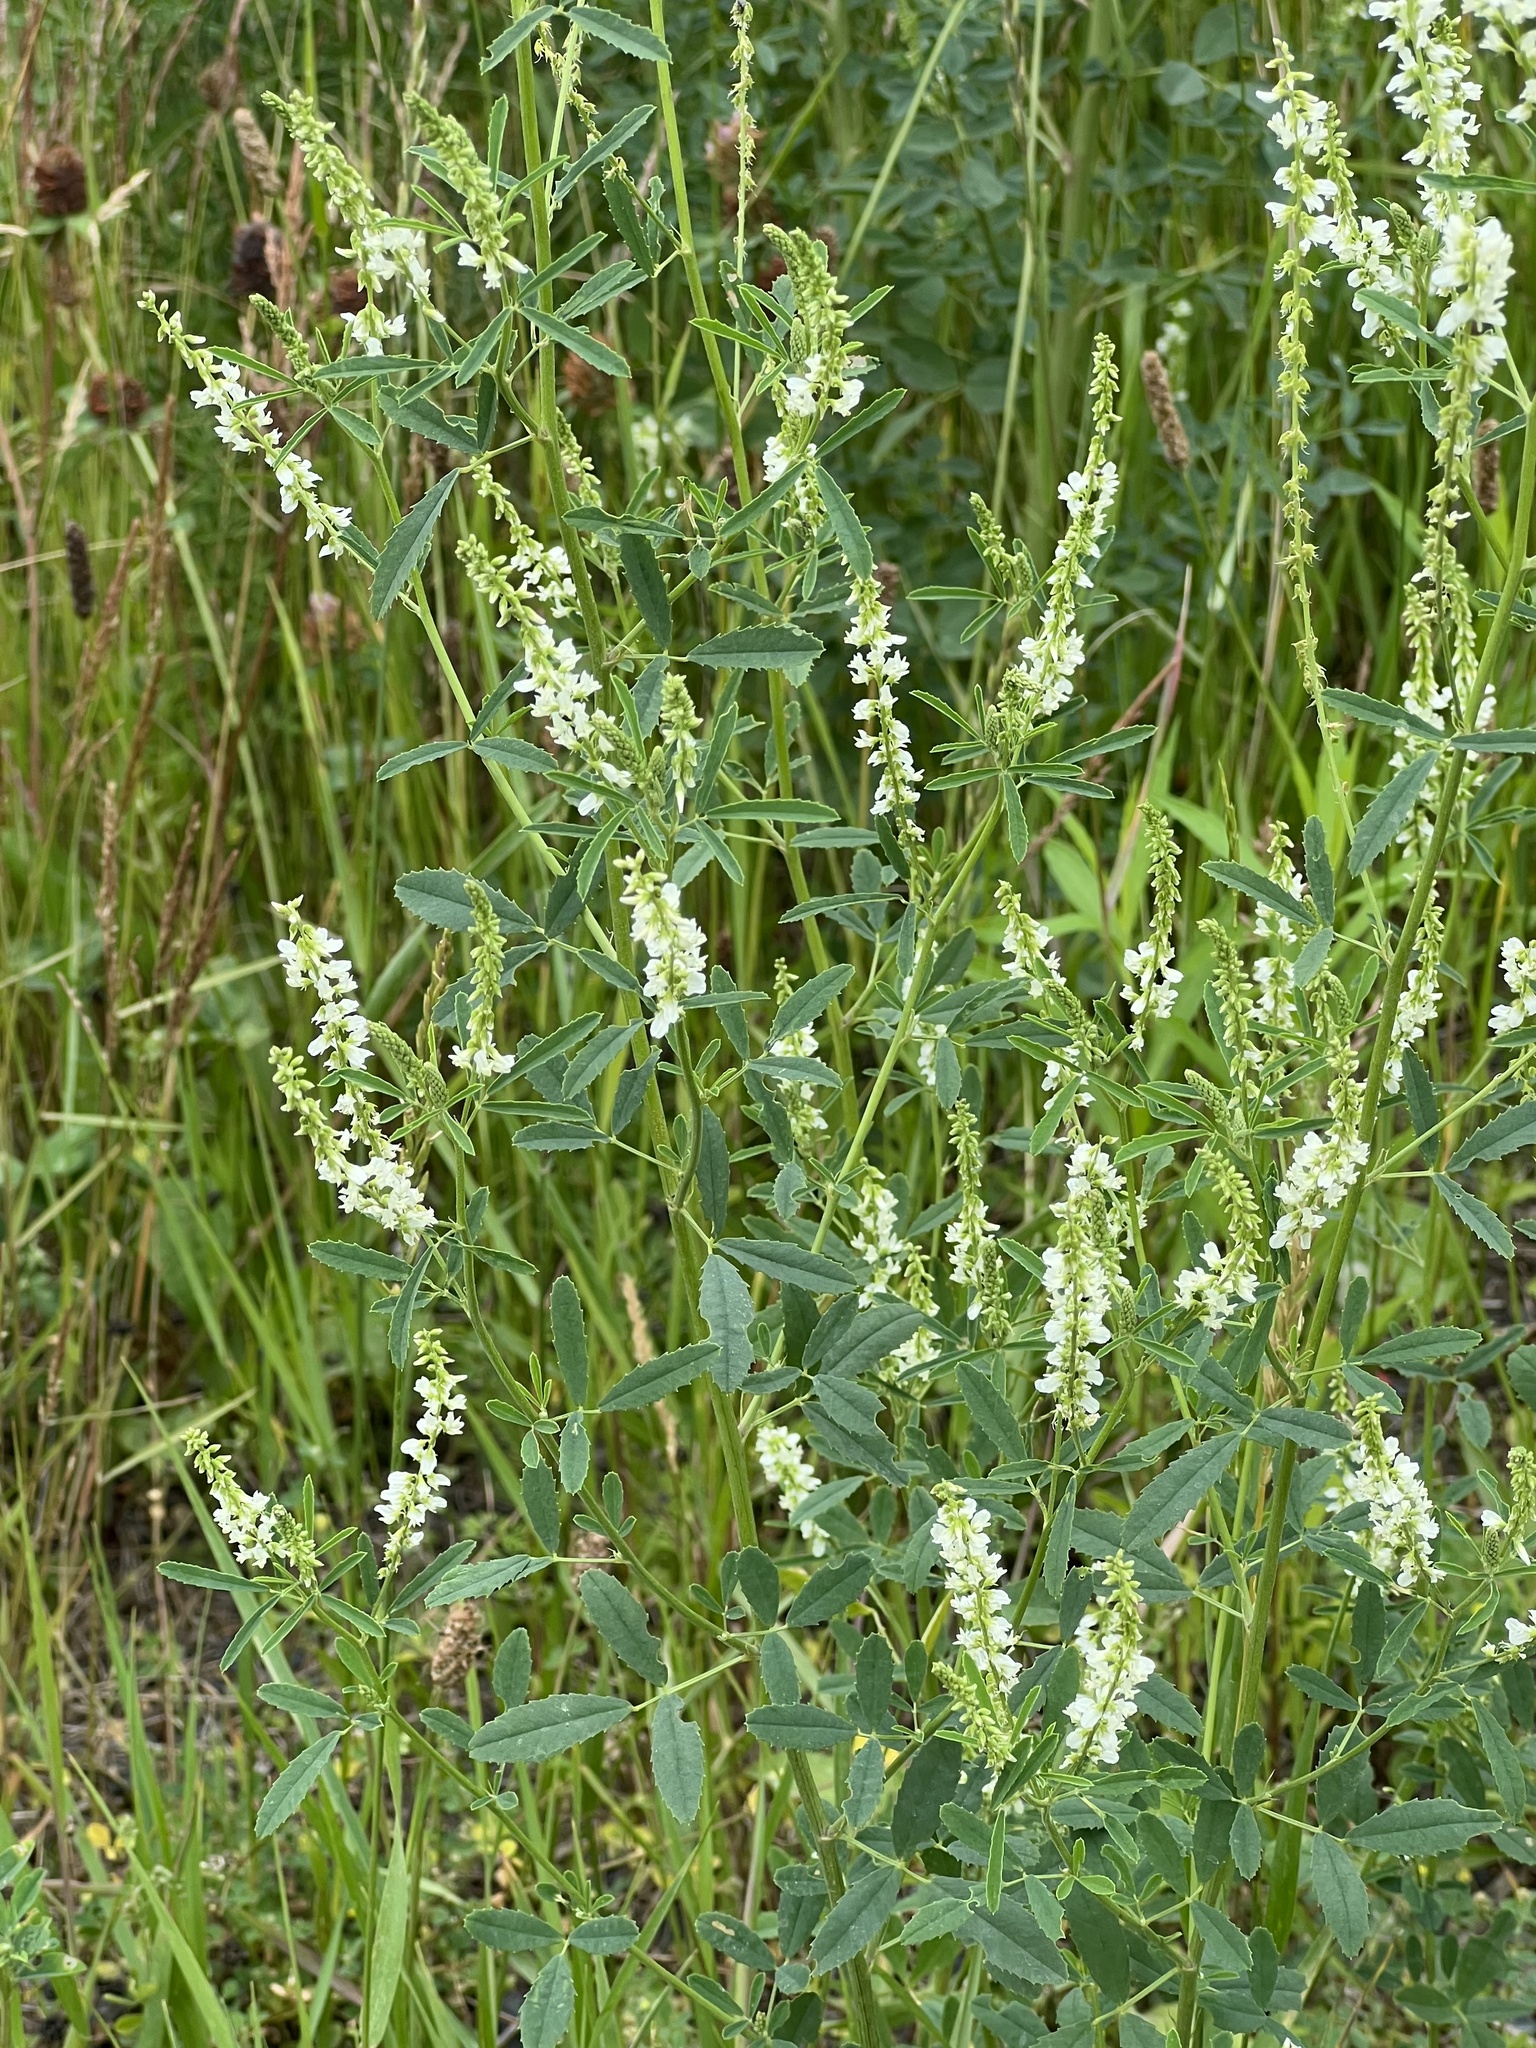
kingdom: Plantae
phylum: Tracheophyta
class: Magnoliopsida
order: Fabales
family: Fabaceae
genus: Melilotus
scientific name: Melilotus albus
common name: White melilot
